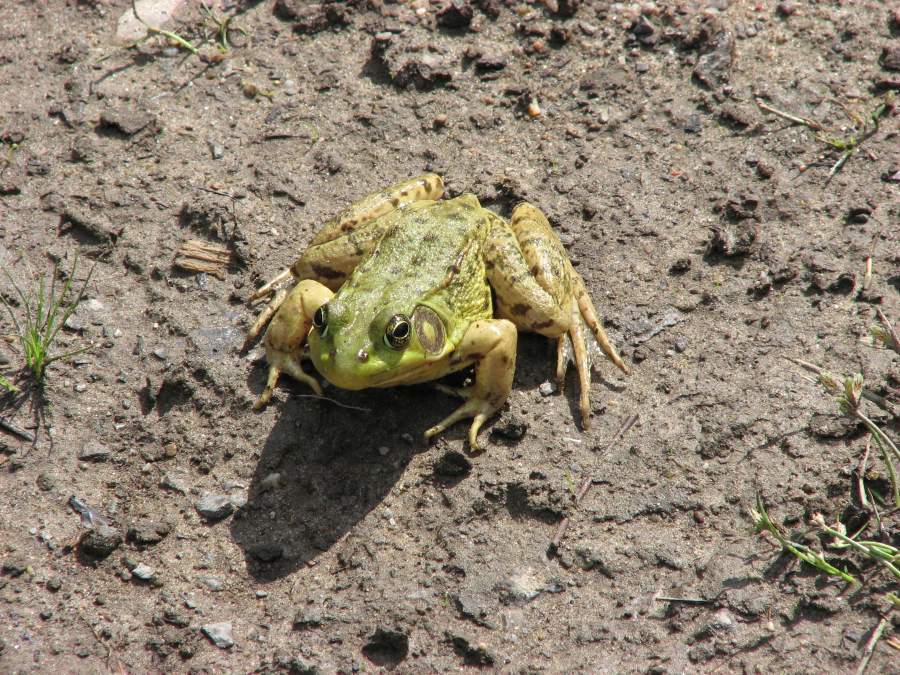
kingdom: Animalia
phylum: Chordata
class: Amphibia
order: Anura
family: Ranidae
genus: Lithobates
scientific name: Lithobates clamitans
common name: Green frog
